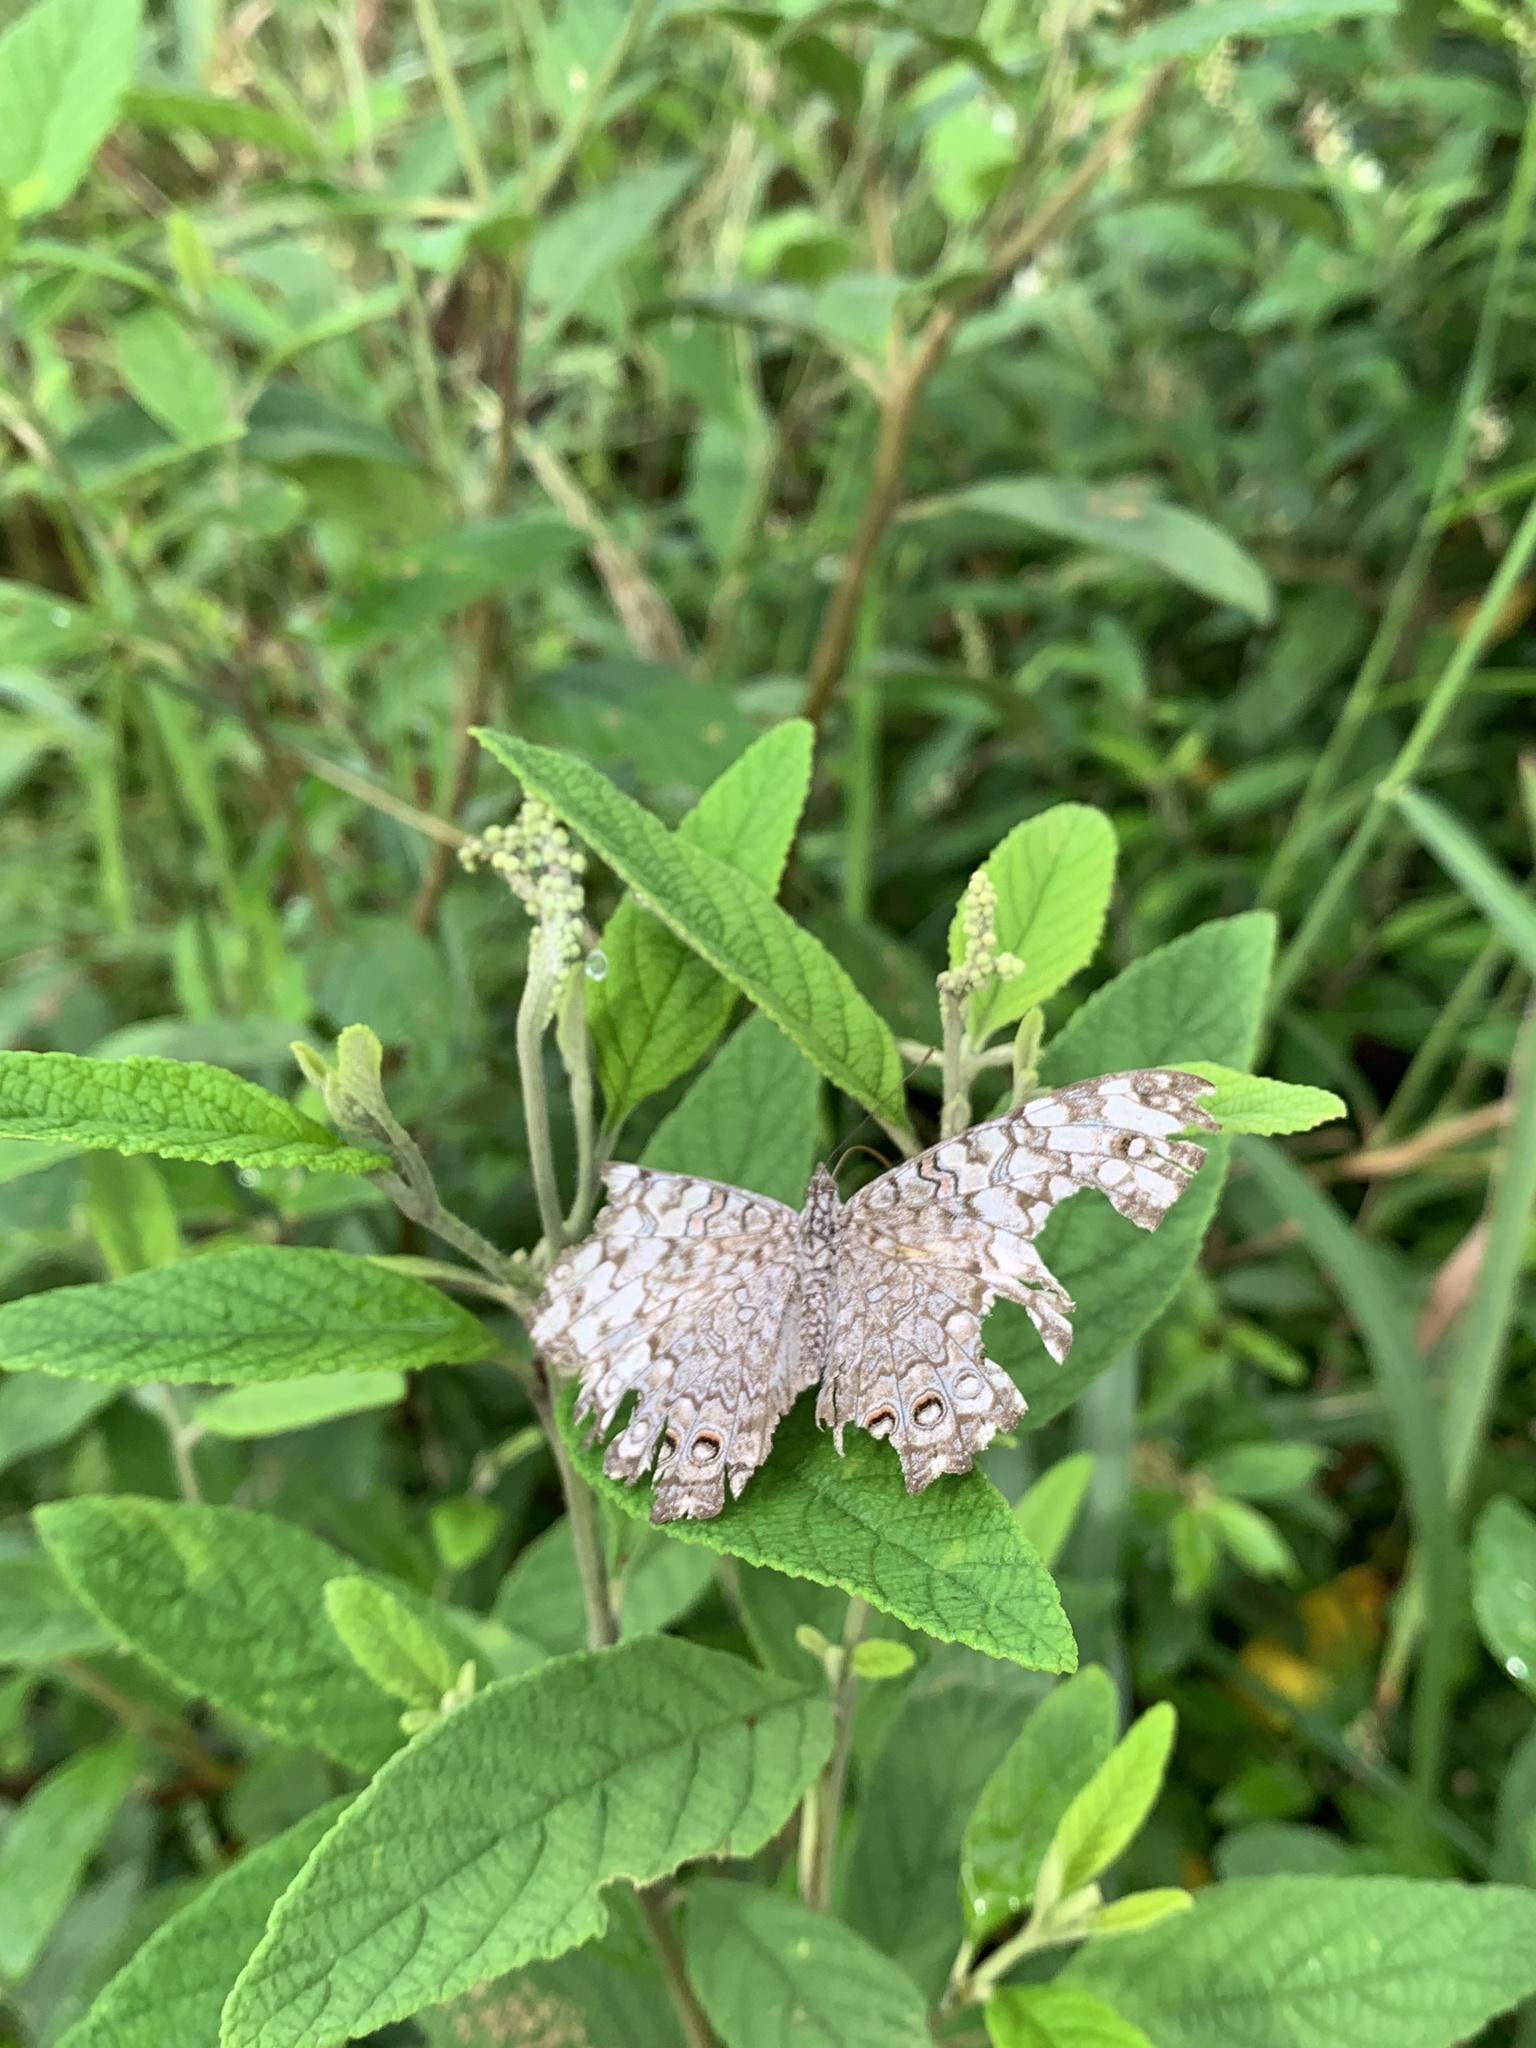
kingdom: Animalia
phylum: Arthropoda
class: Insecta
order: Lepidoptera
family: Nymphalidae
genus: Hamadryas
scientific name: Hamadryas februa
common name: Gray cracker
